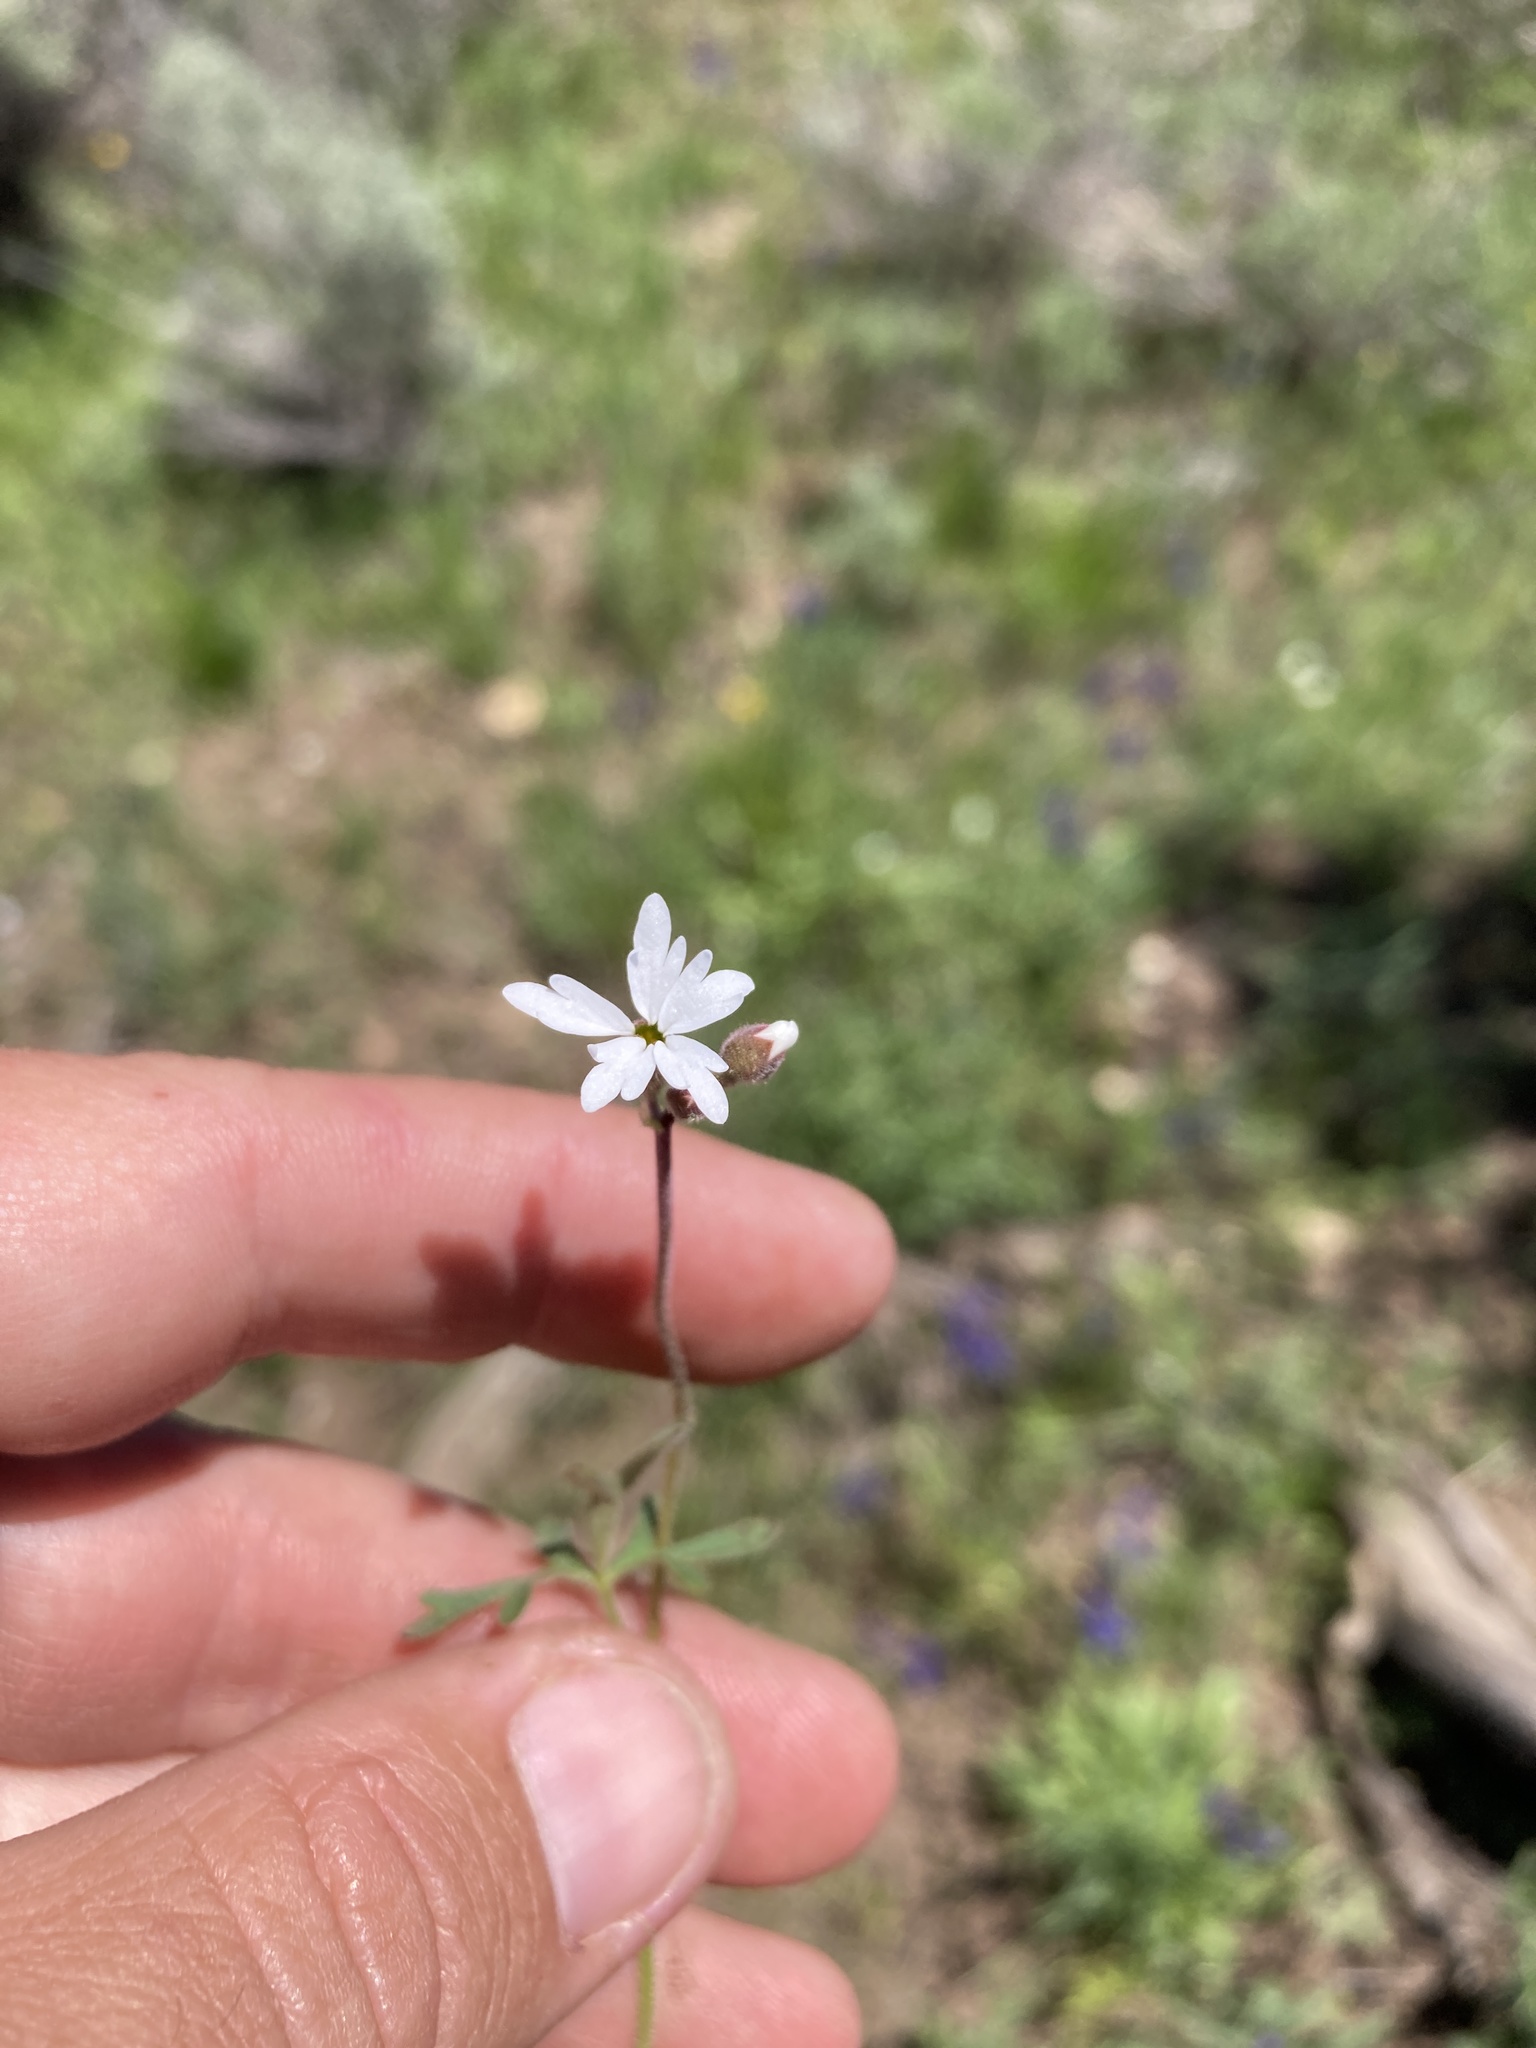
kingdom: Plantae
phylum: Tracheophyta
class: Magnoliopsida
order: Saxifragales
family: Saxifragaceae
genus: Lithophragma
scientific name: Lithophragma parviflorum
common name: Small-flowered fringe-cup
